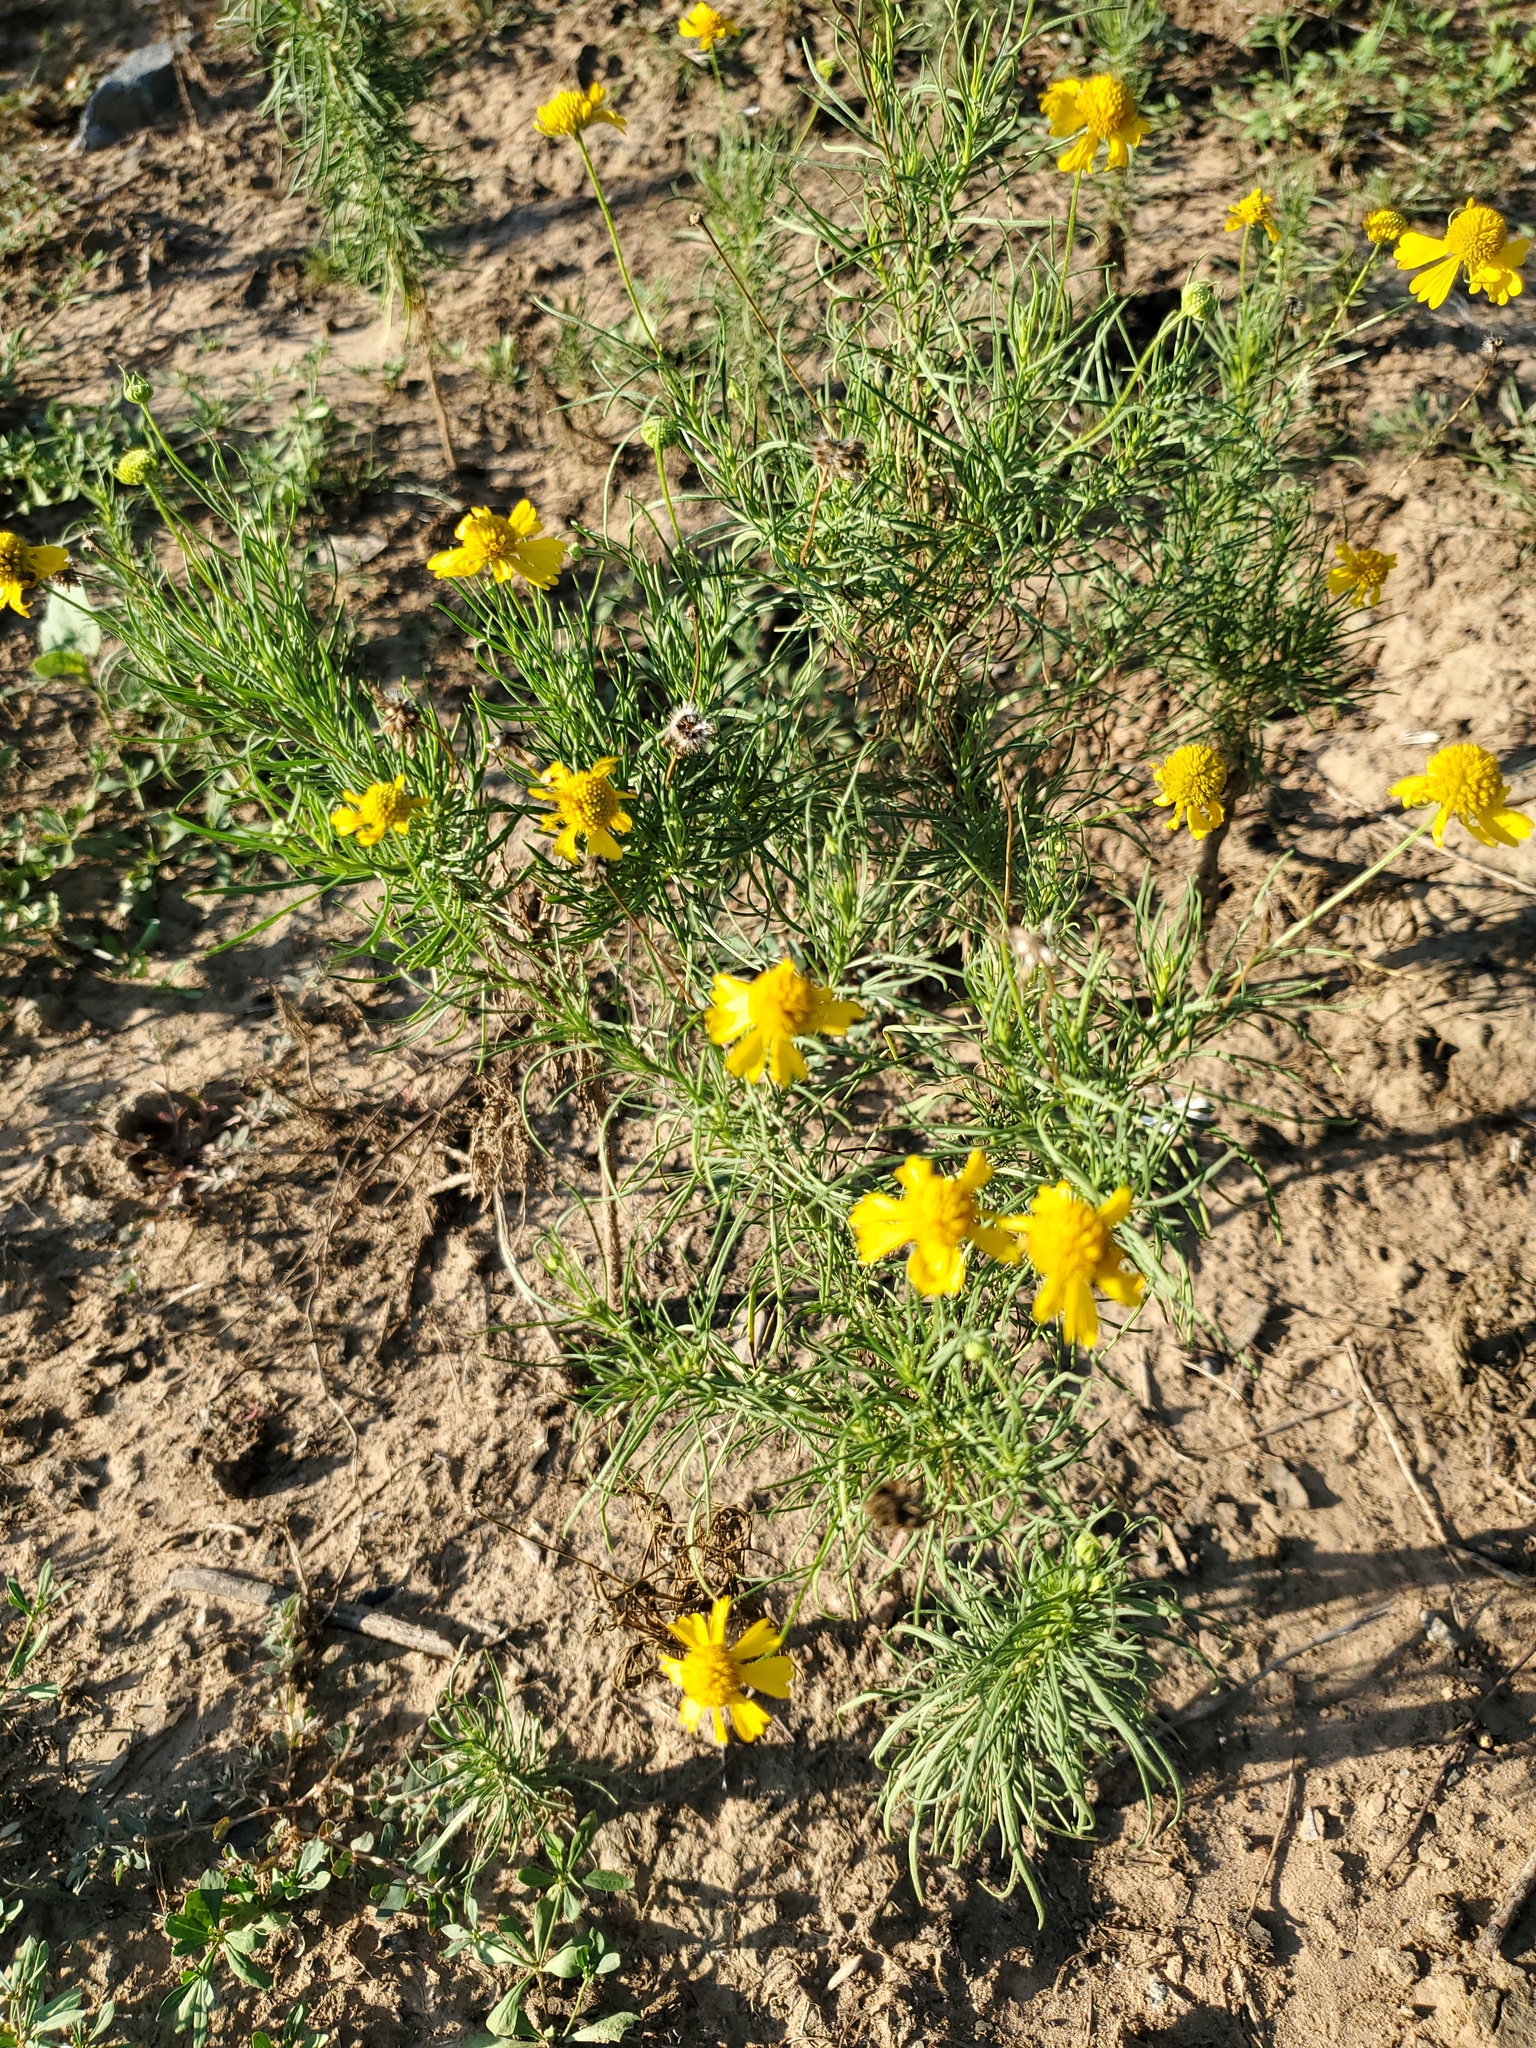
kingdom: Plantae
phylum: Tracheophyta
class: Magnoliopsida
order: Asterales
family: Asteraceae
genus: Helenium
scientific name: Helenium amarum
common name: Bitter sneezeweed
